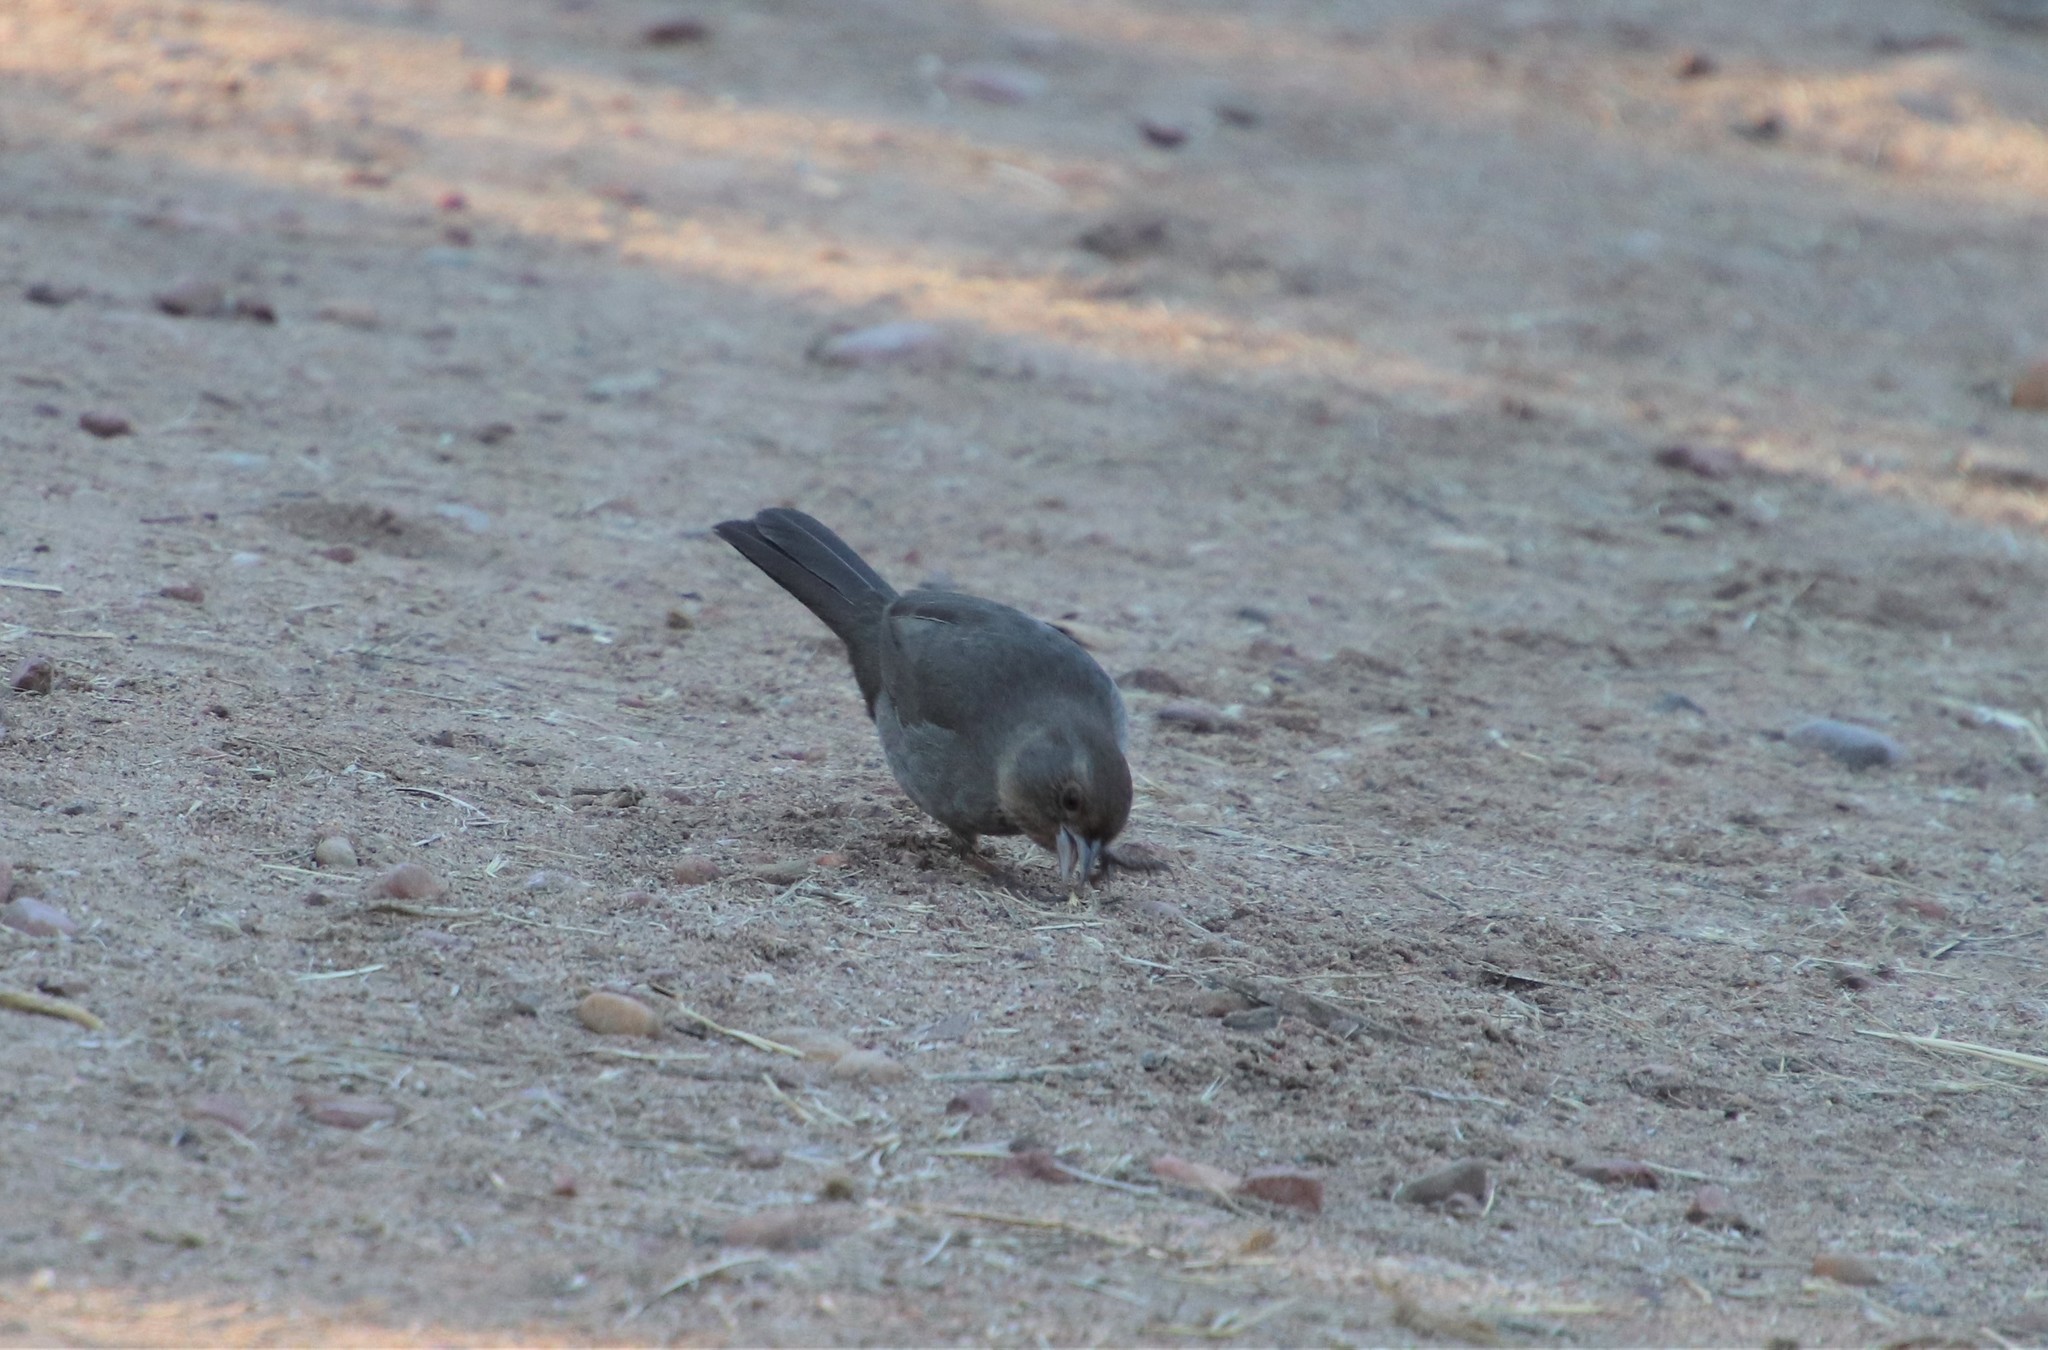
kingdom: Animalia
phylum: Chordata
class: Aves
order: Passeriformes
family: Passerellidae
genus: Melozone
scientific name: Melozone crissalis
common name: California towhee
